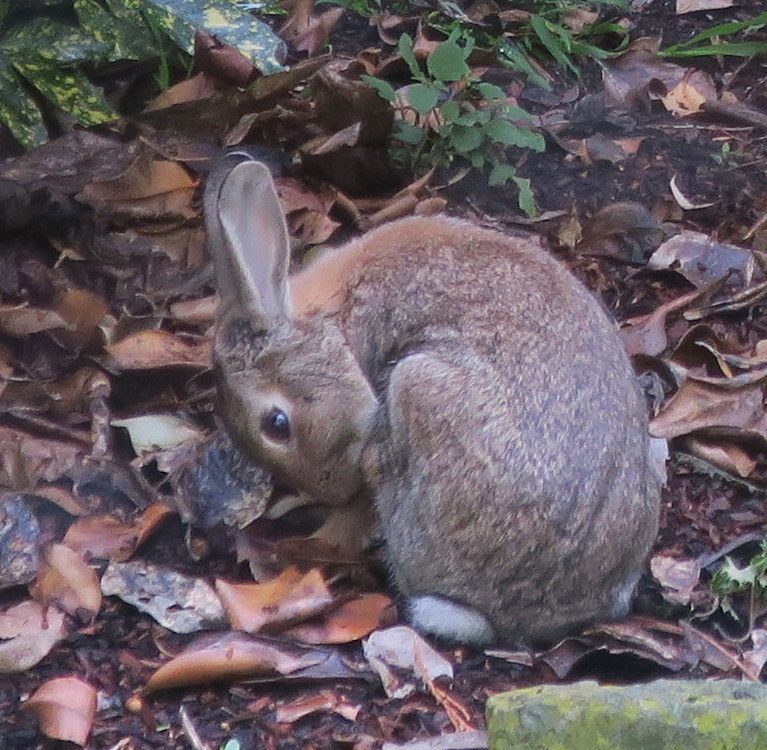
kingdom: Animalia
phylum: Chordata
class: Mammalia
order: Lagomorpha
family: Leporidae
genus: Oryctolagus
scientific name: Oryctolagus cuniculus
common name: European rabbit
